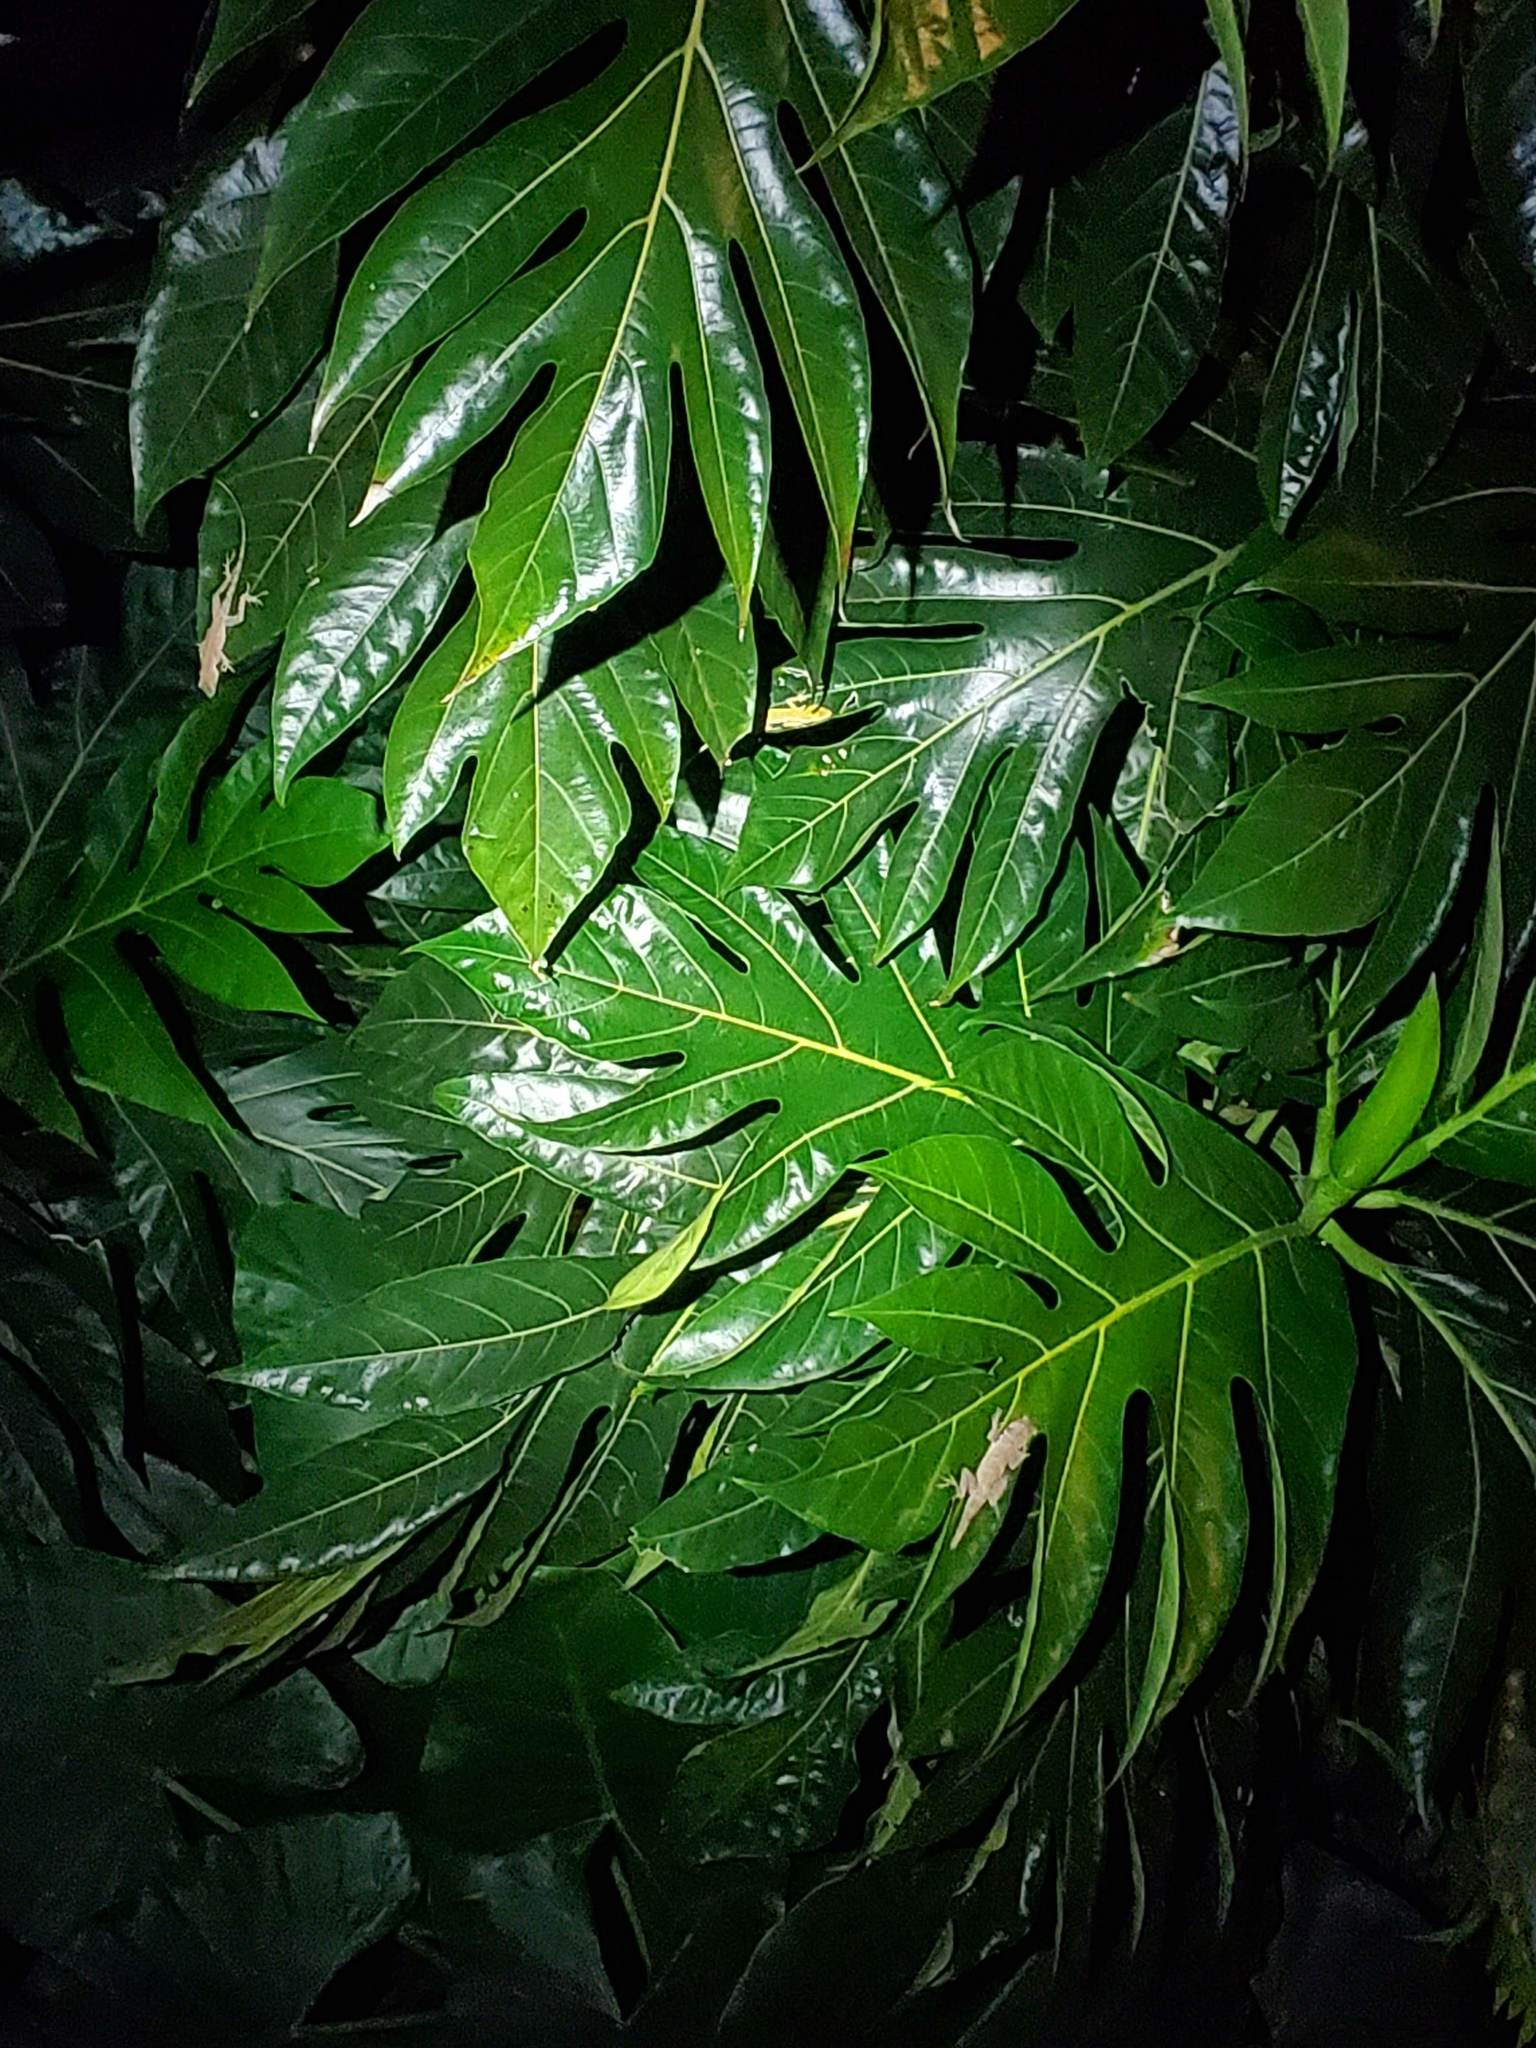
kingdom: Plantae
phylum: Tracheophyta
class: Magnoliopsida
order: Rosales
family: Moraceae
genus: Artocarpus
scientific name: Artocarpus altilis
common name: Breadfruit
